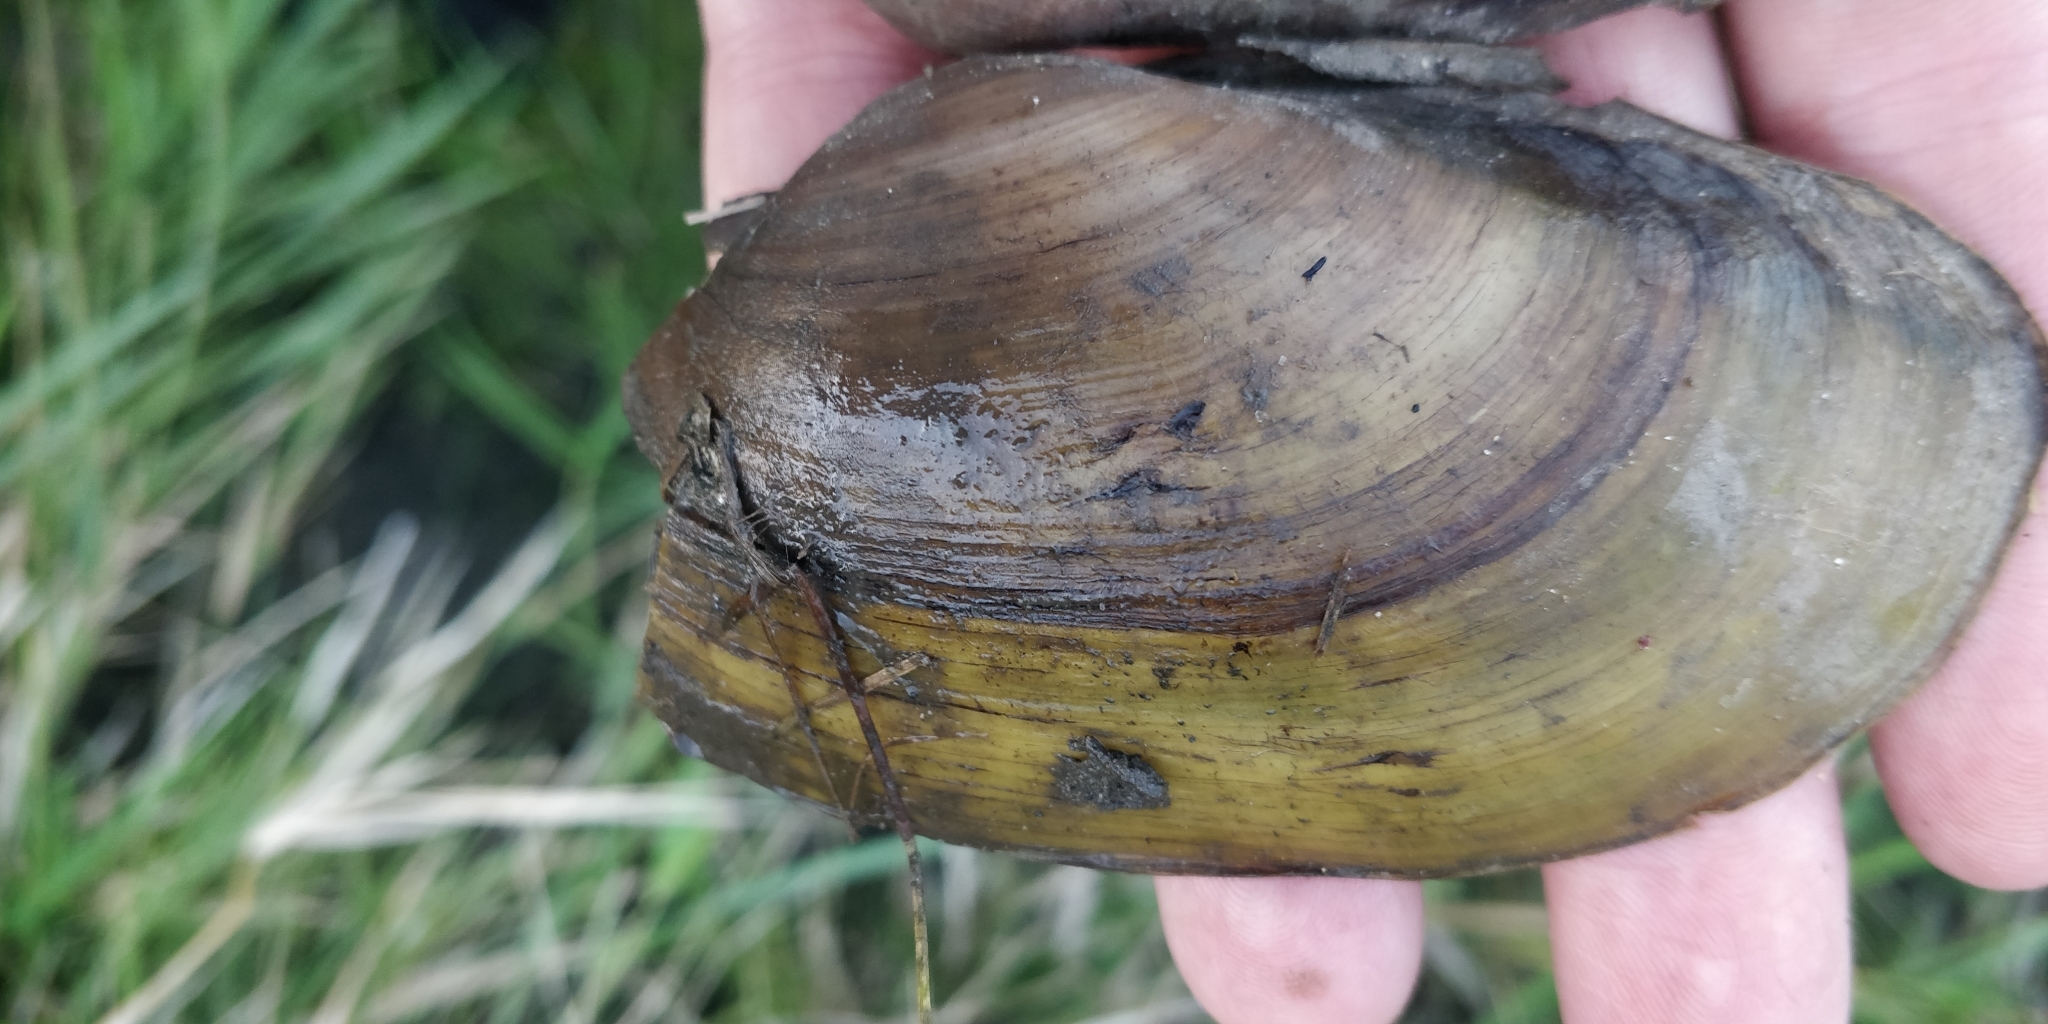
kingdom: Animalia
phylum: Mollusca
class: Bivalvia
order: Unionida
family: Unionidae
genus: Pyganodon
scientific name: Pyganodon grandis
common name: Giant floater
